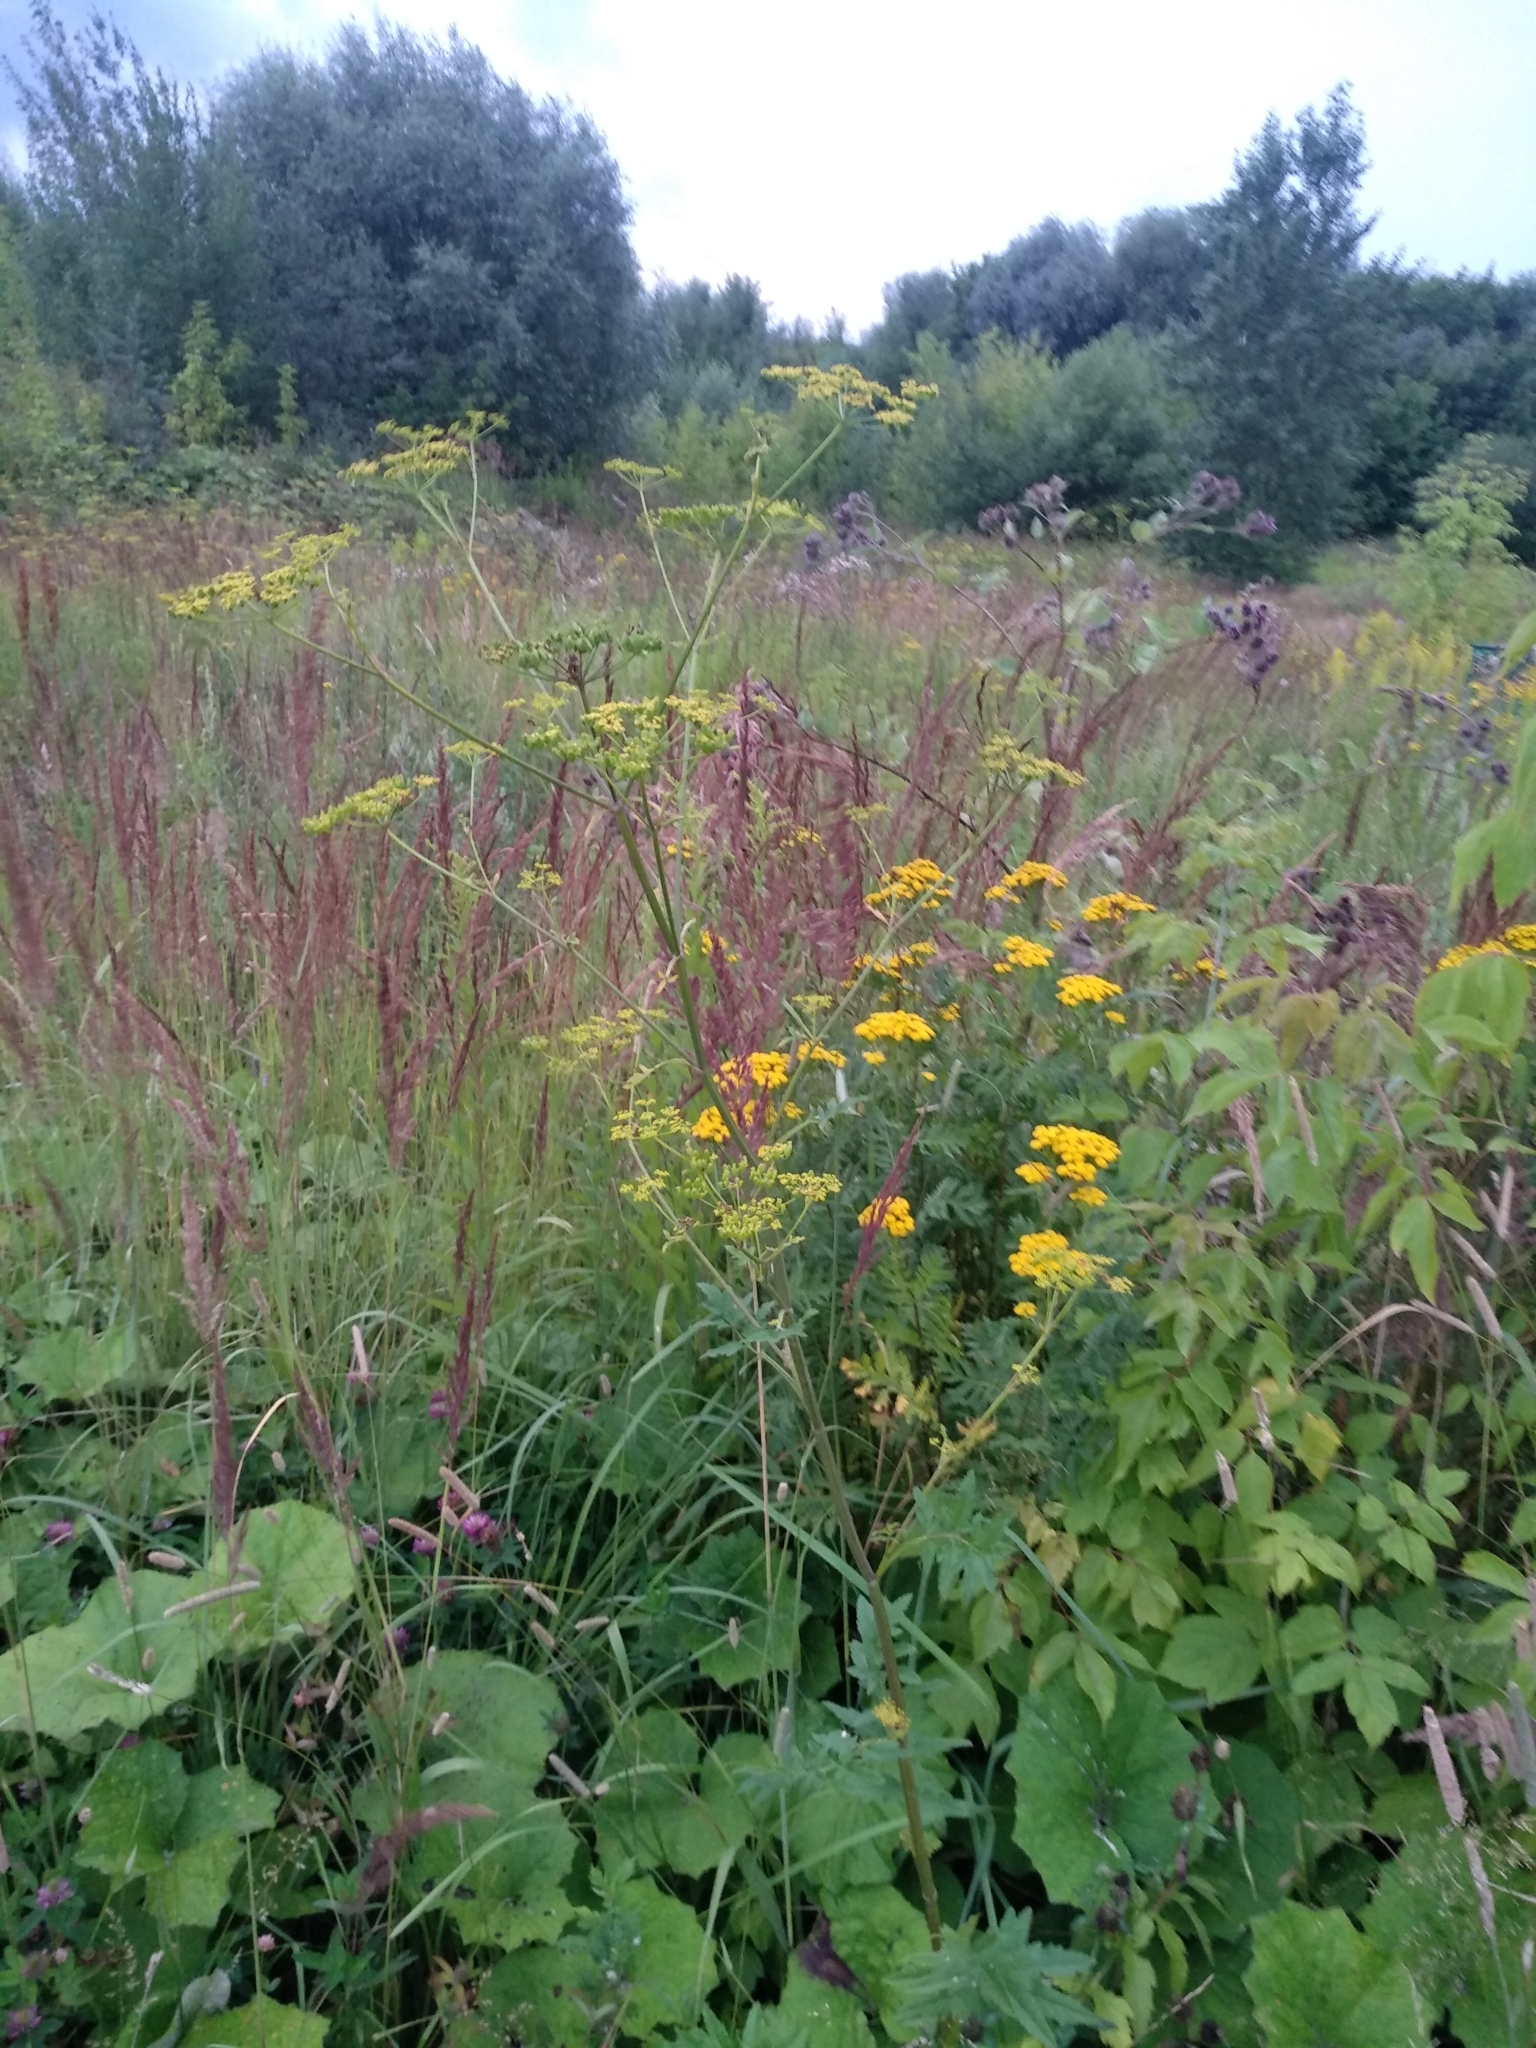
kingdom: Plantae
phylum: Tracheophyta
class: Magnoliopsida
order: Apiales
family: Apiaceae
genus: Pastinaca
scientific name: Pastinaca sativa
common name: Wild parsnip
